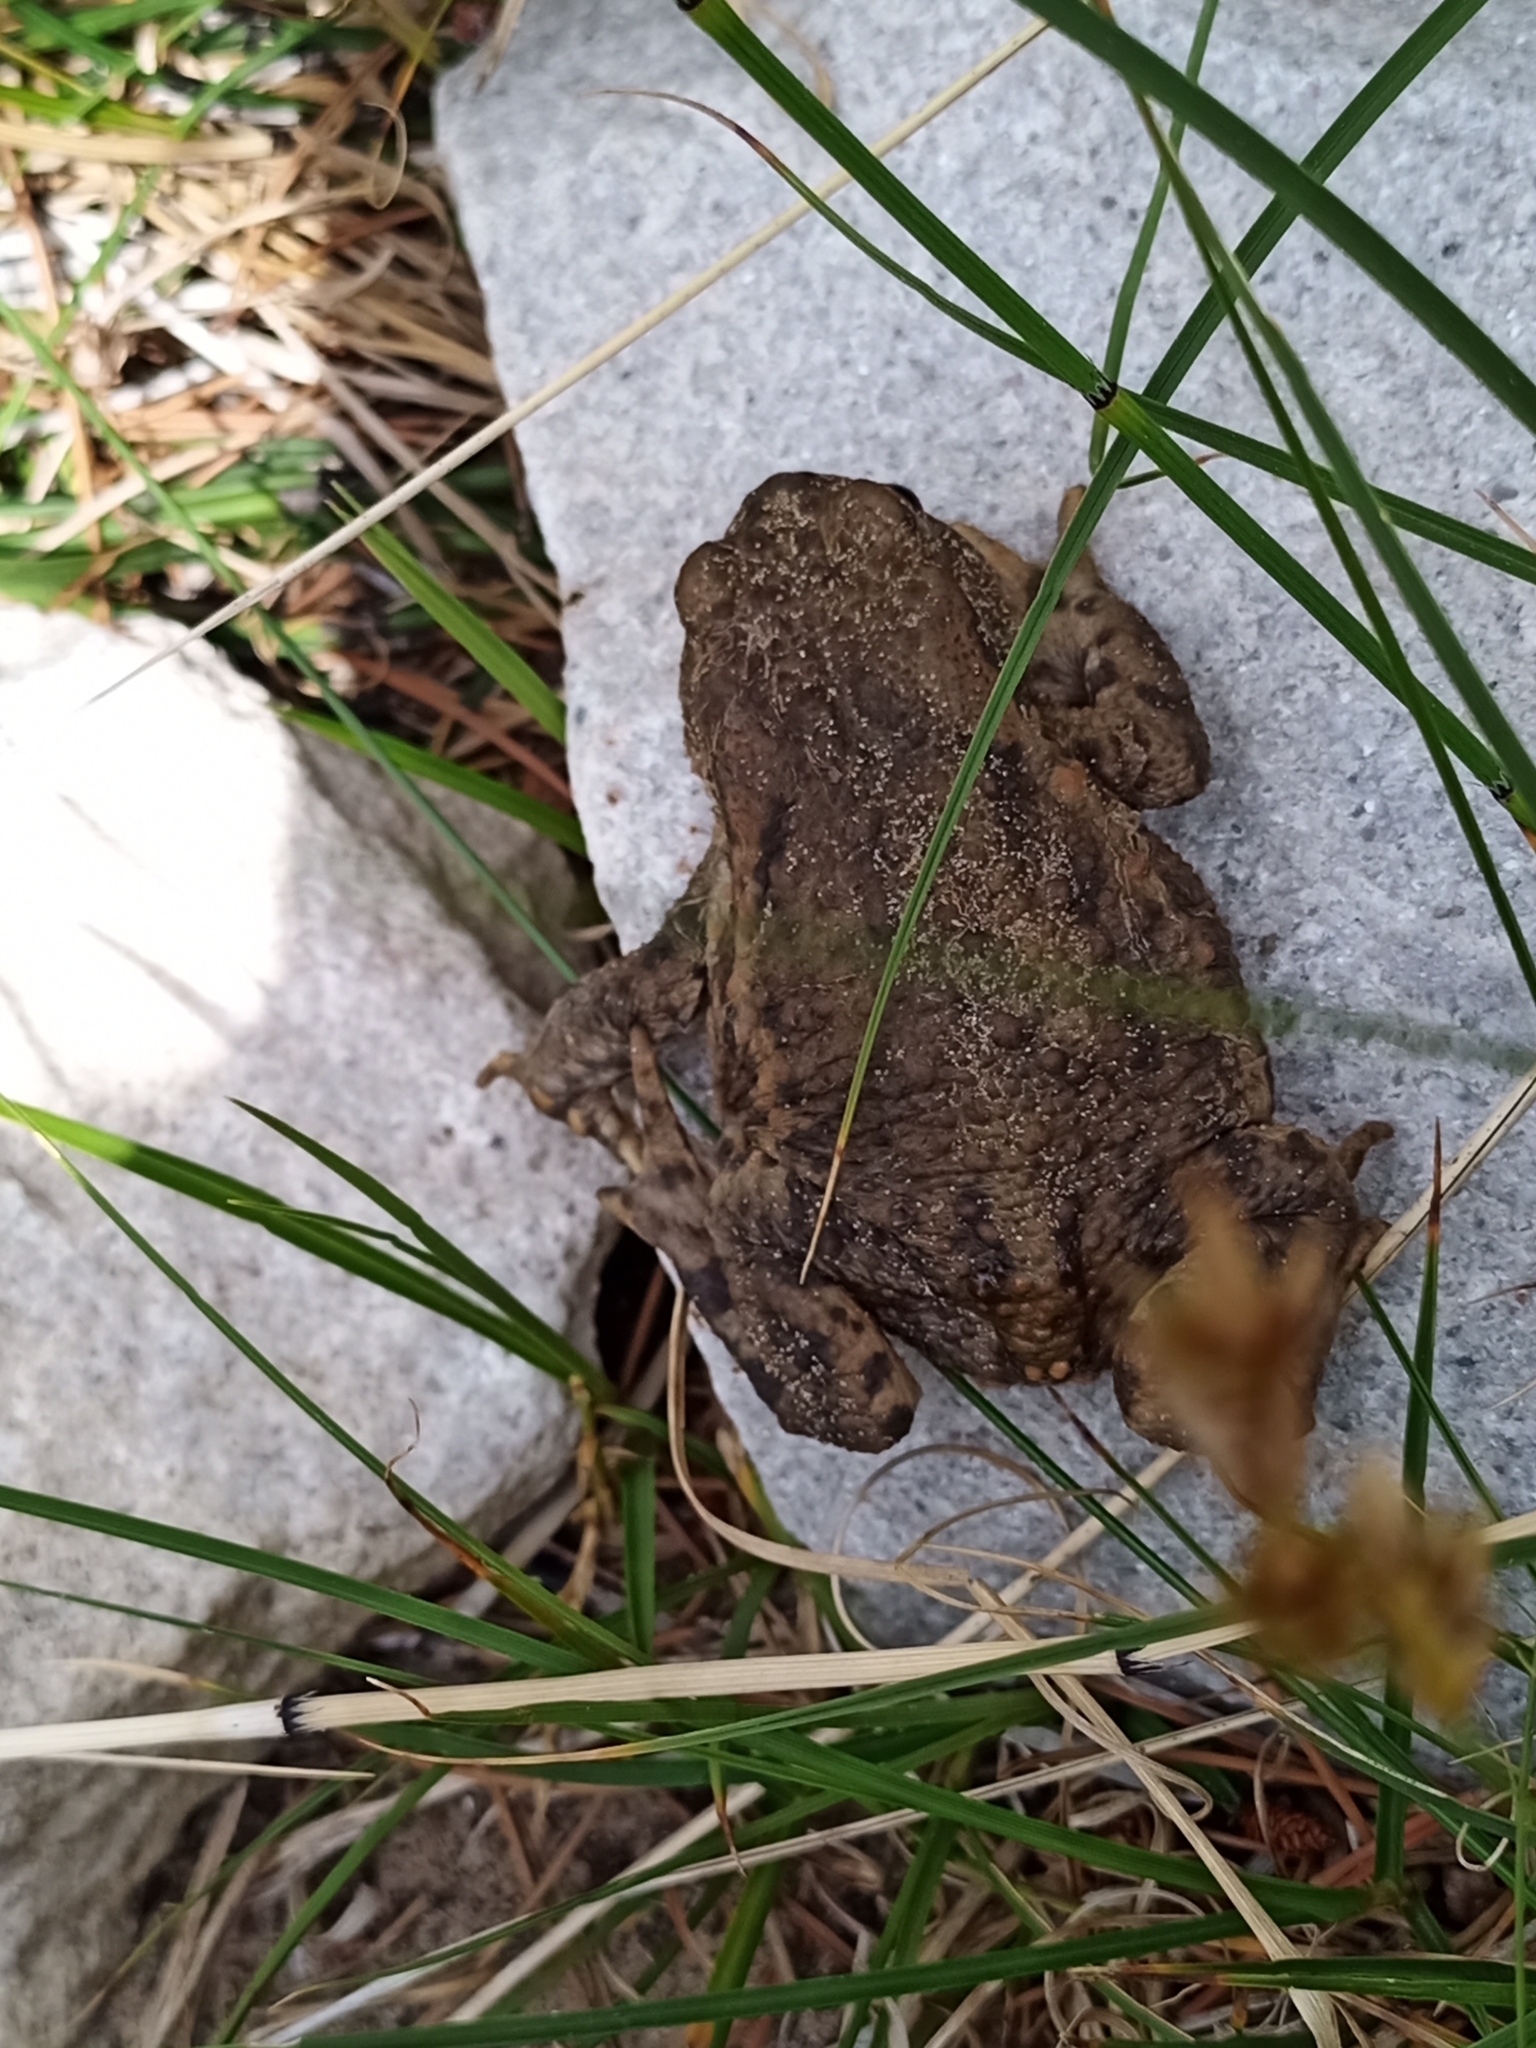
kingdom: Animalia
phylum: Chordata
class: Amphibia
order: Anura
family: Bufonidae
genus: Bufo
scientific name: Bufo bufo
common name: Common toad
